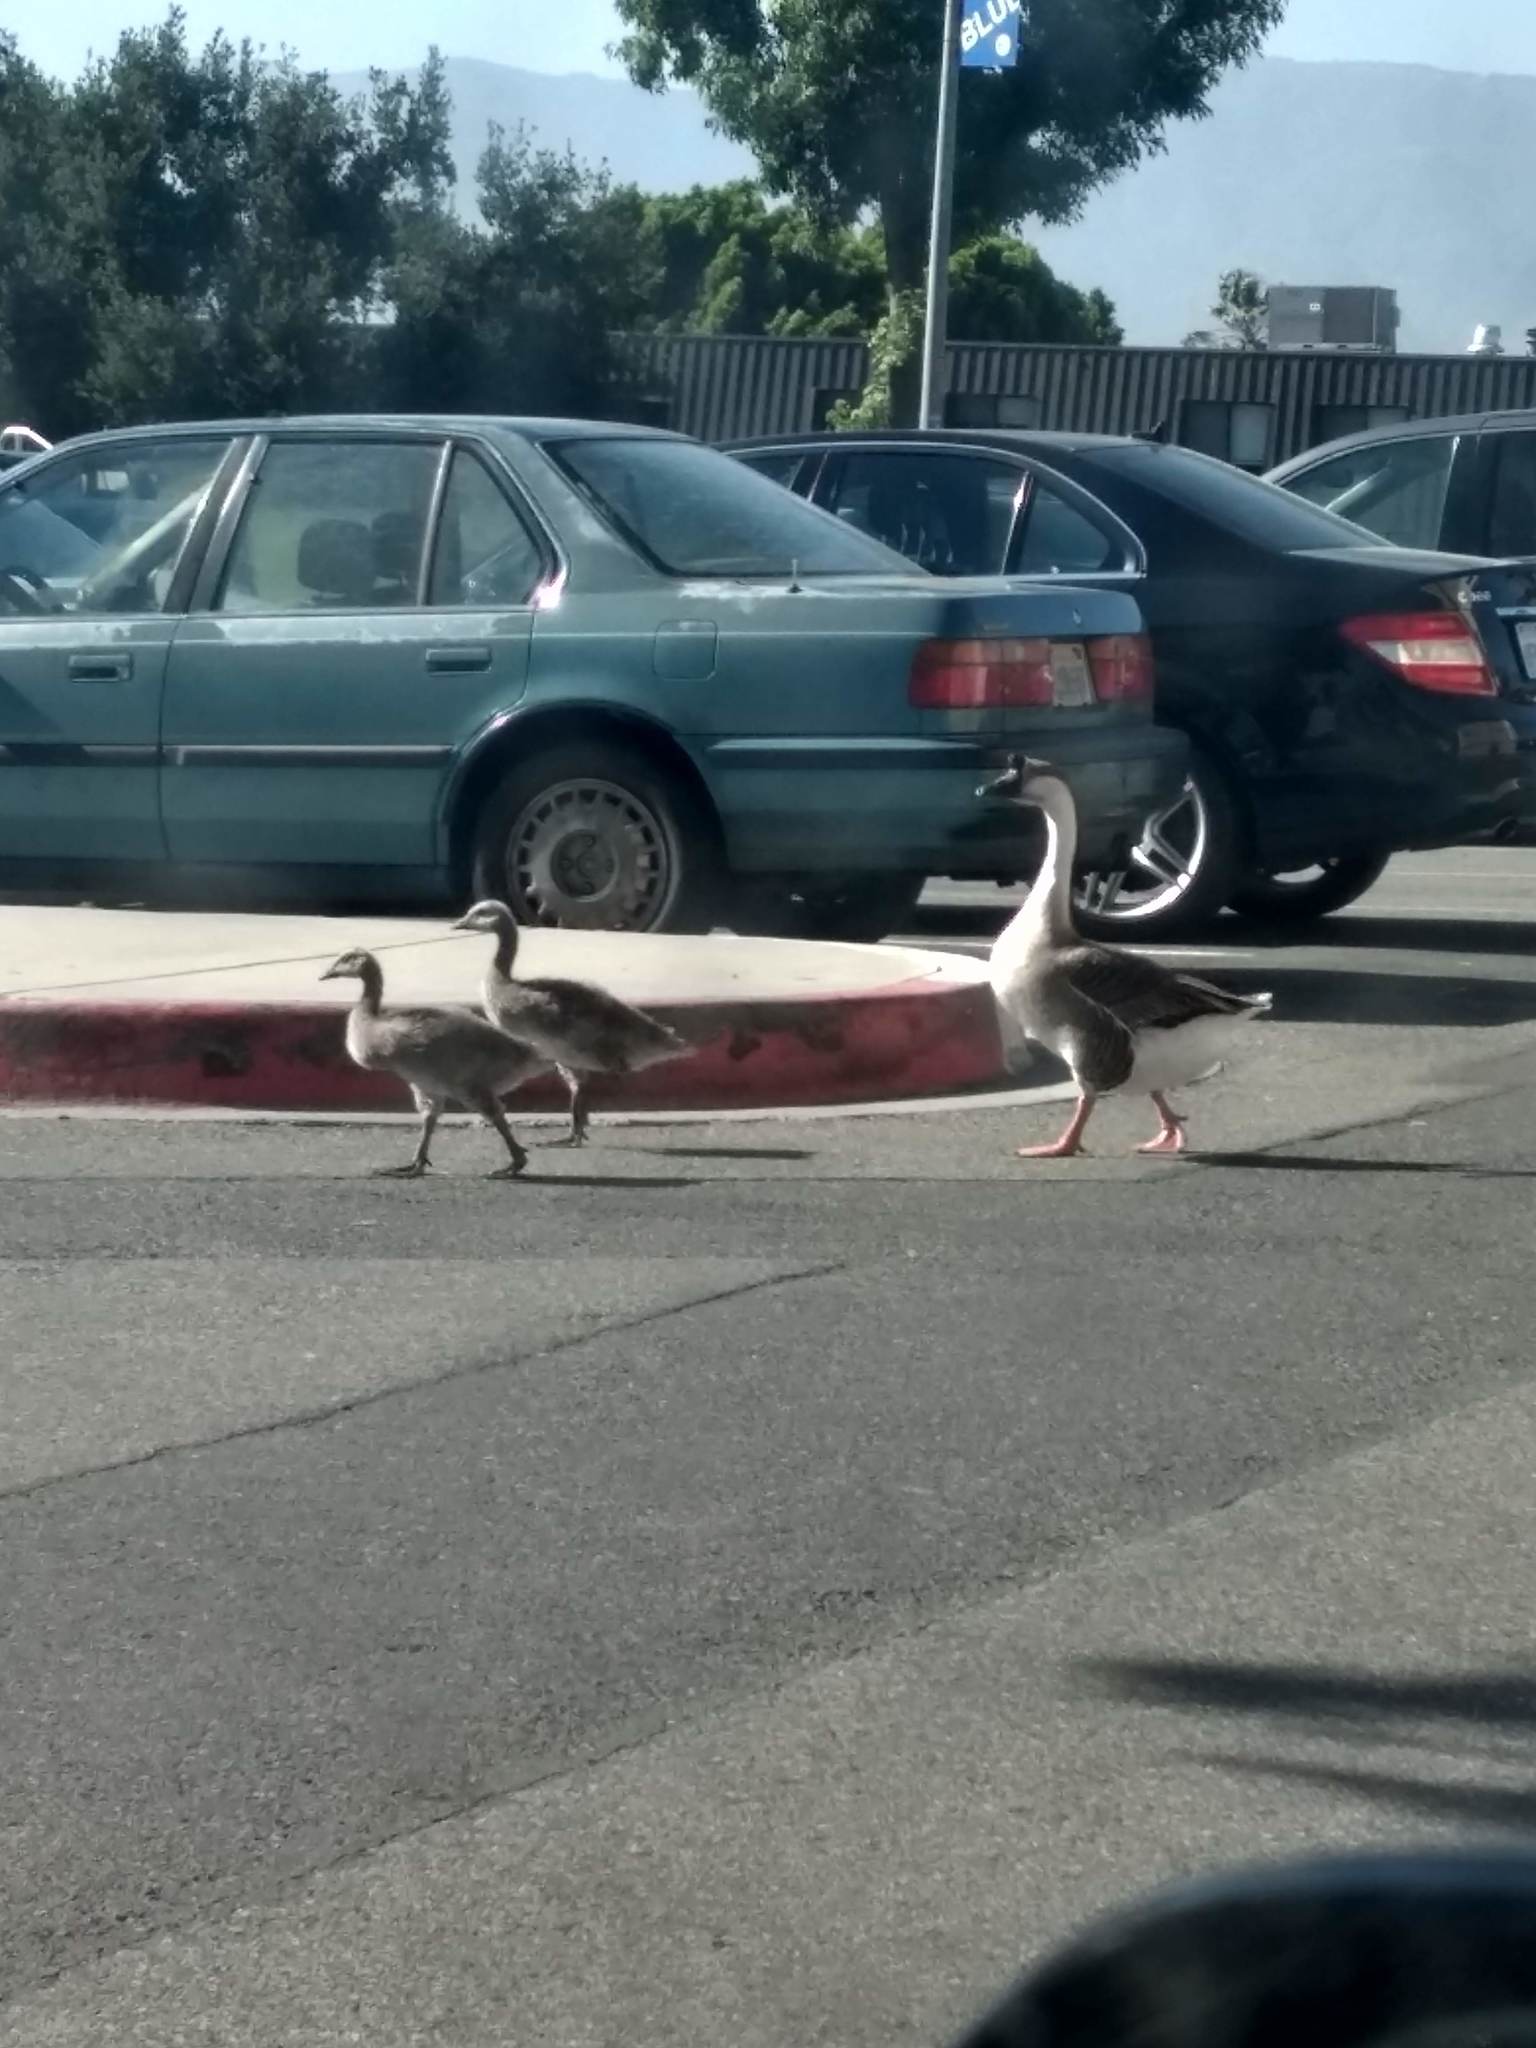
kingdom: Animalia
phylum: Chordata
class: Aves
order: Anseriformes
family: Anatidae
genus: Anser
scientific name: Anser cygnoides
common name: Swan goose
